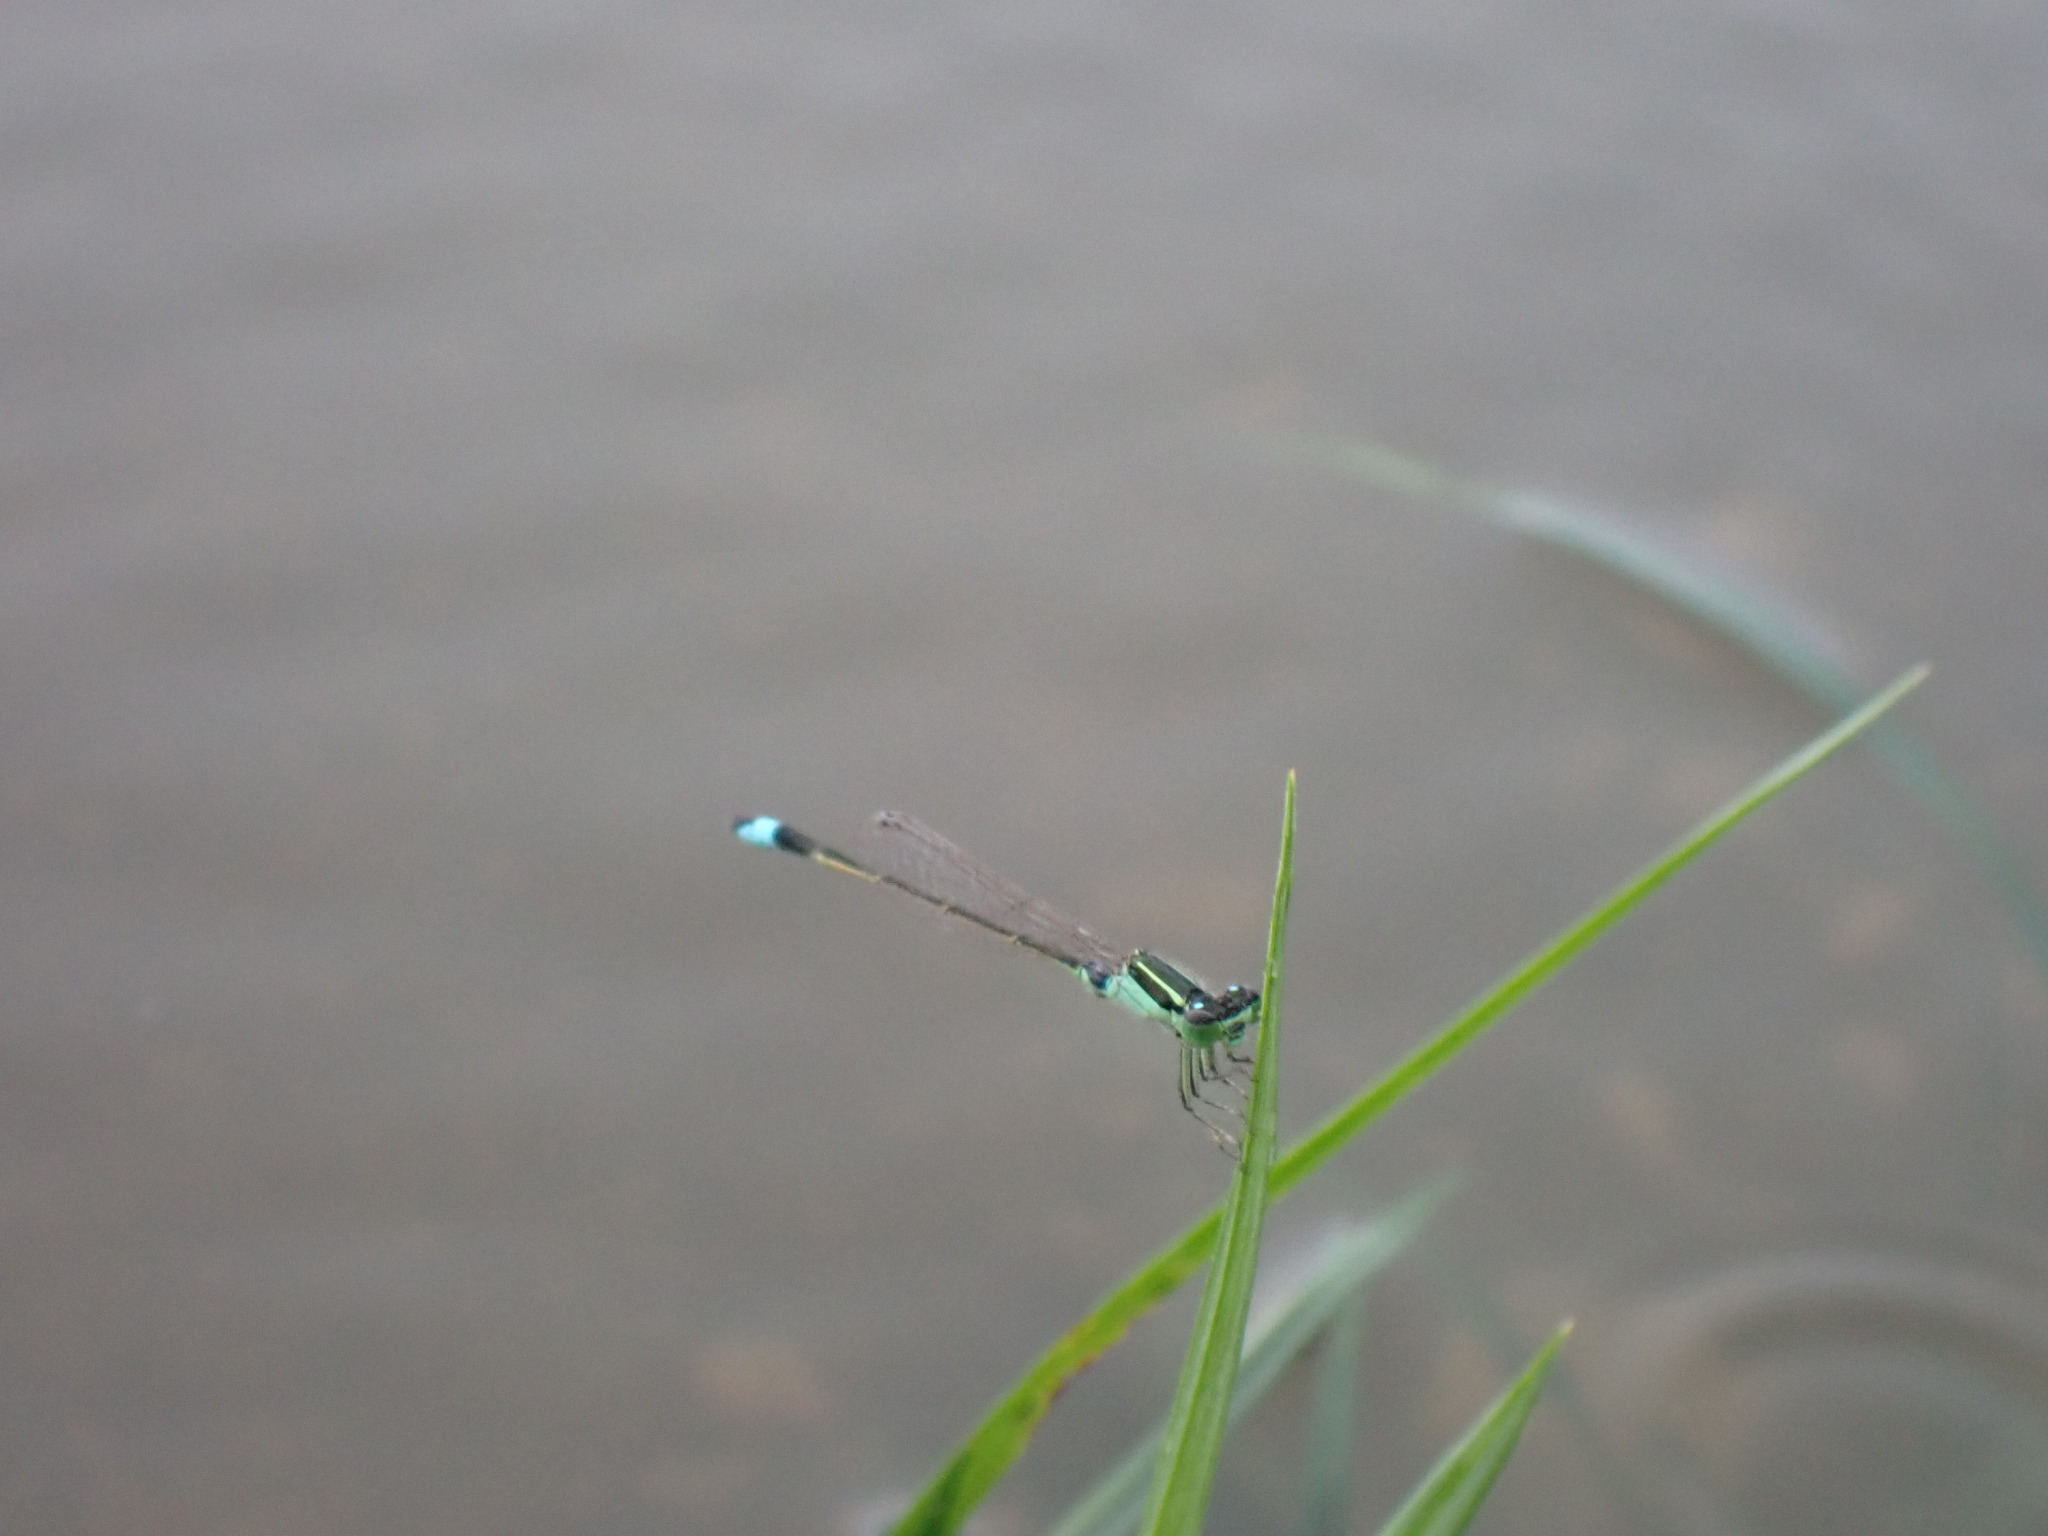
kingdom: Animalia
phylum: Arthropoda
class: Insecta
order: Odonata
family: Coenagrionidae
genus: Ischnura
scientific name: Ischnura senegalensis
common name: Tropical bluetail
